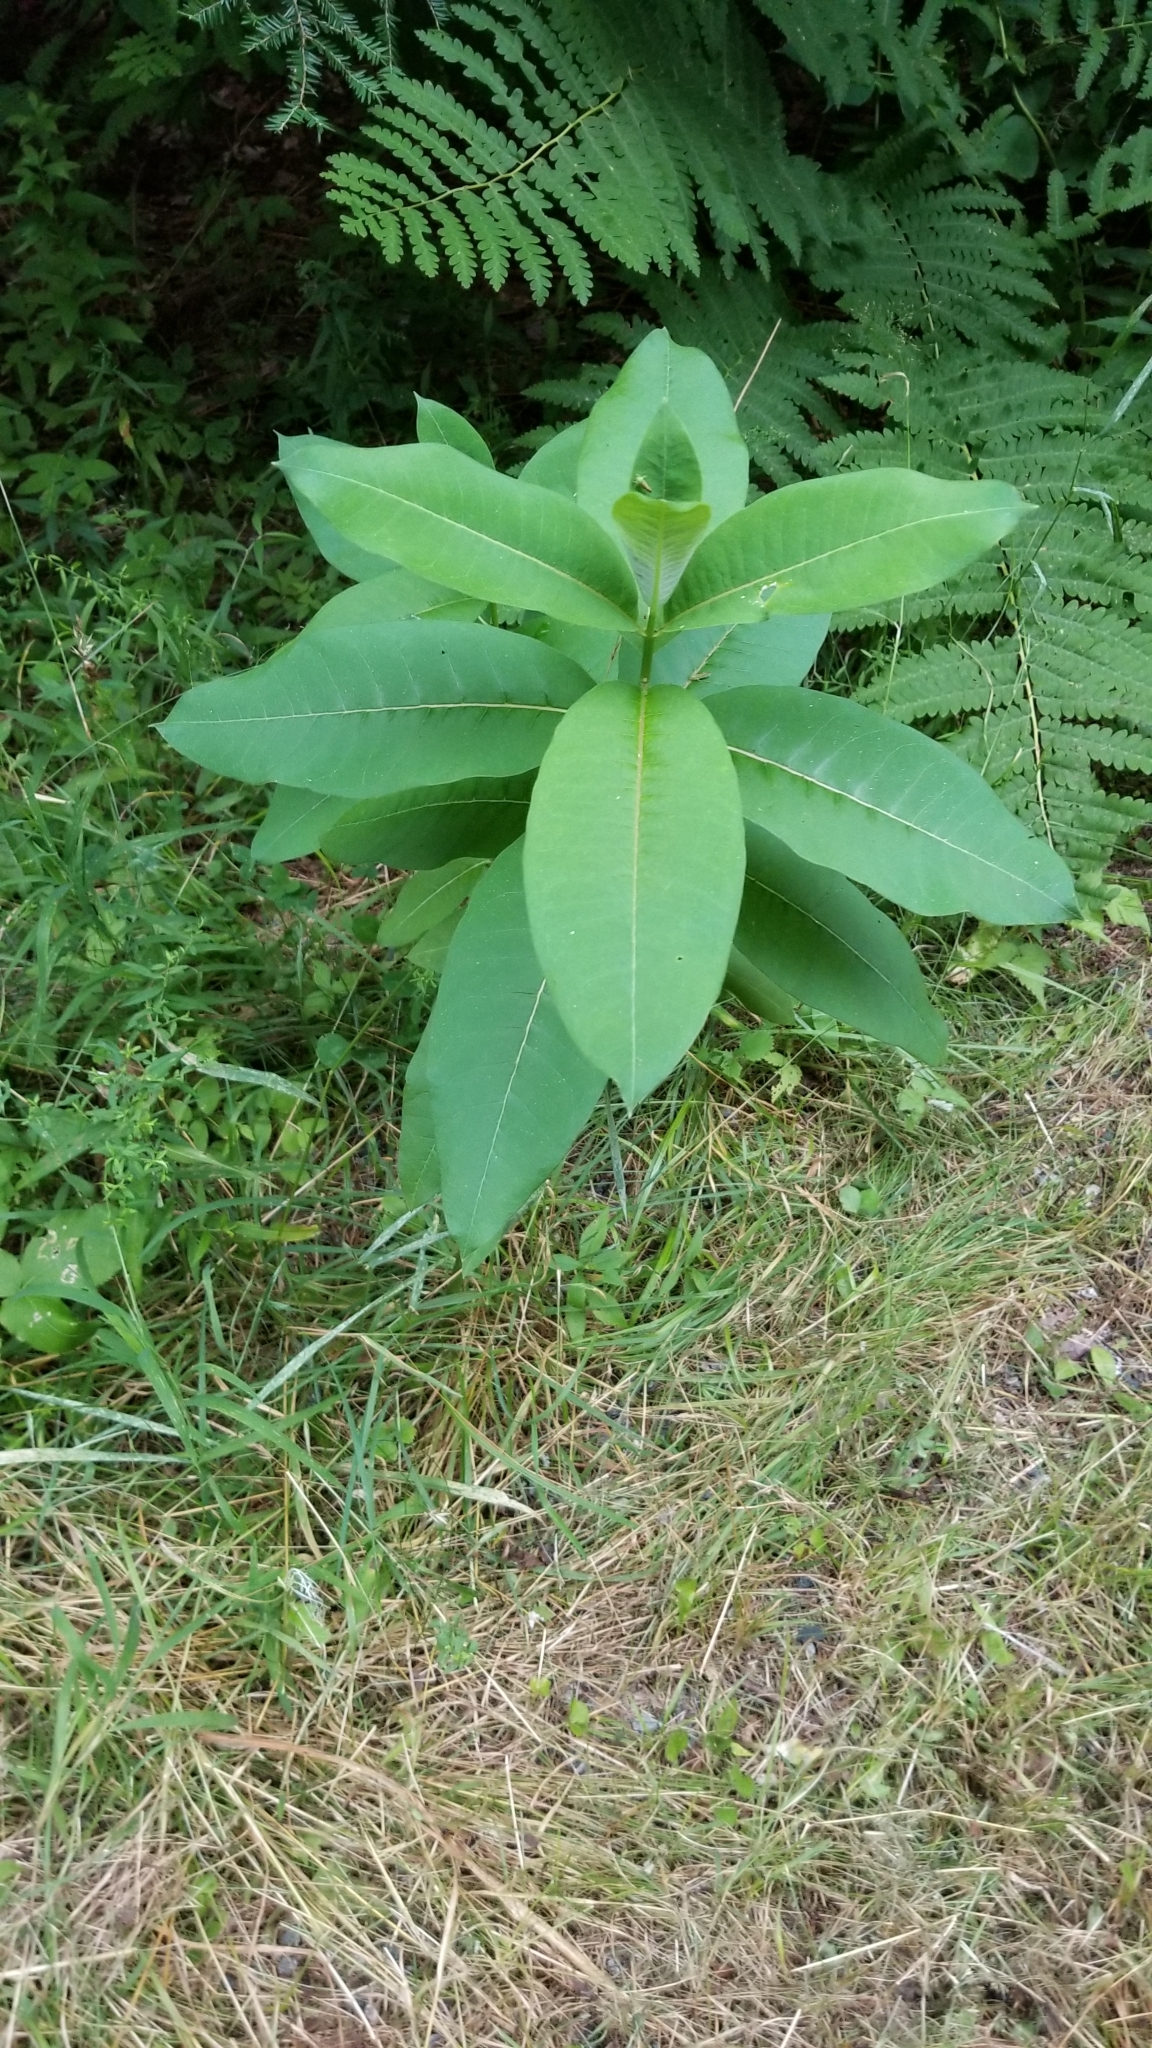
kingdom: Plantae
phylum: Tracheophyta
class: Magnoliopsida
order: Gentianales
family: Apocynaceae
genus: Asclepias
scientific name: Asclepias syriaca
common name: Common milkweed
